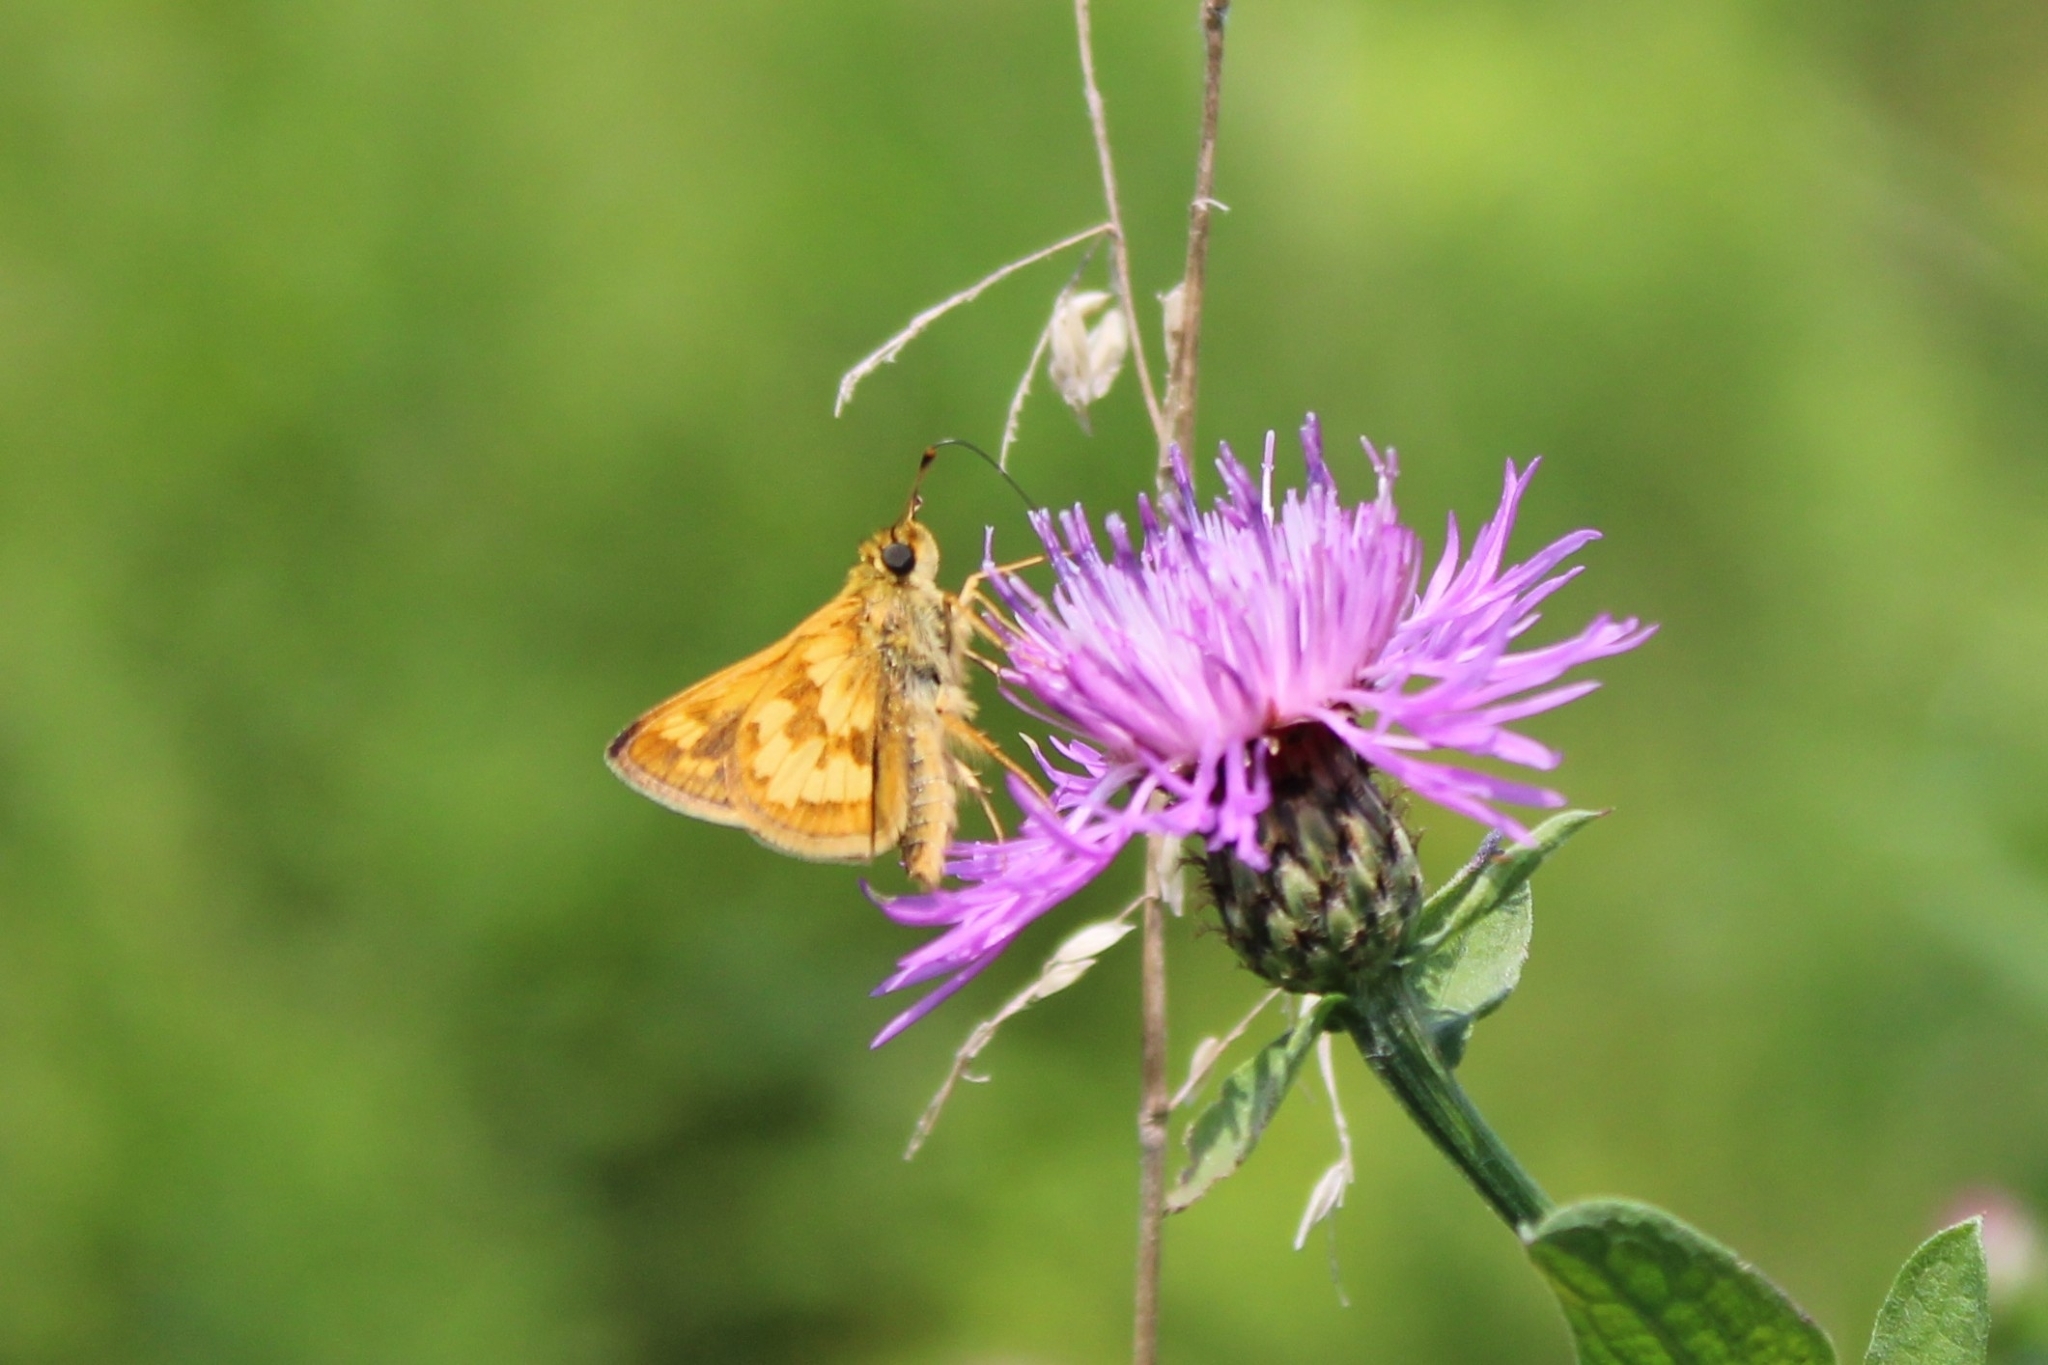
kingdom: Animalia
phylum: Arthropoda
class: Insecta
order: Lepidoptera
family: Hesperiidae
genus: Polites
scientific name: Polites coras
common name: Peck's skipper
